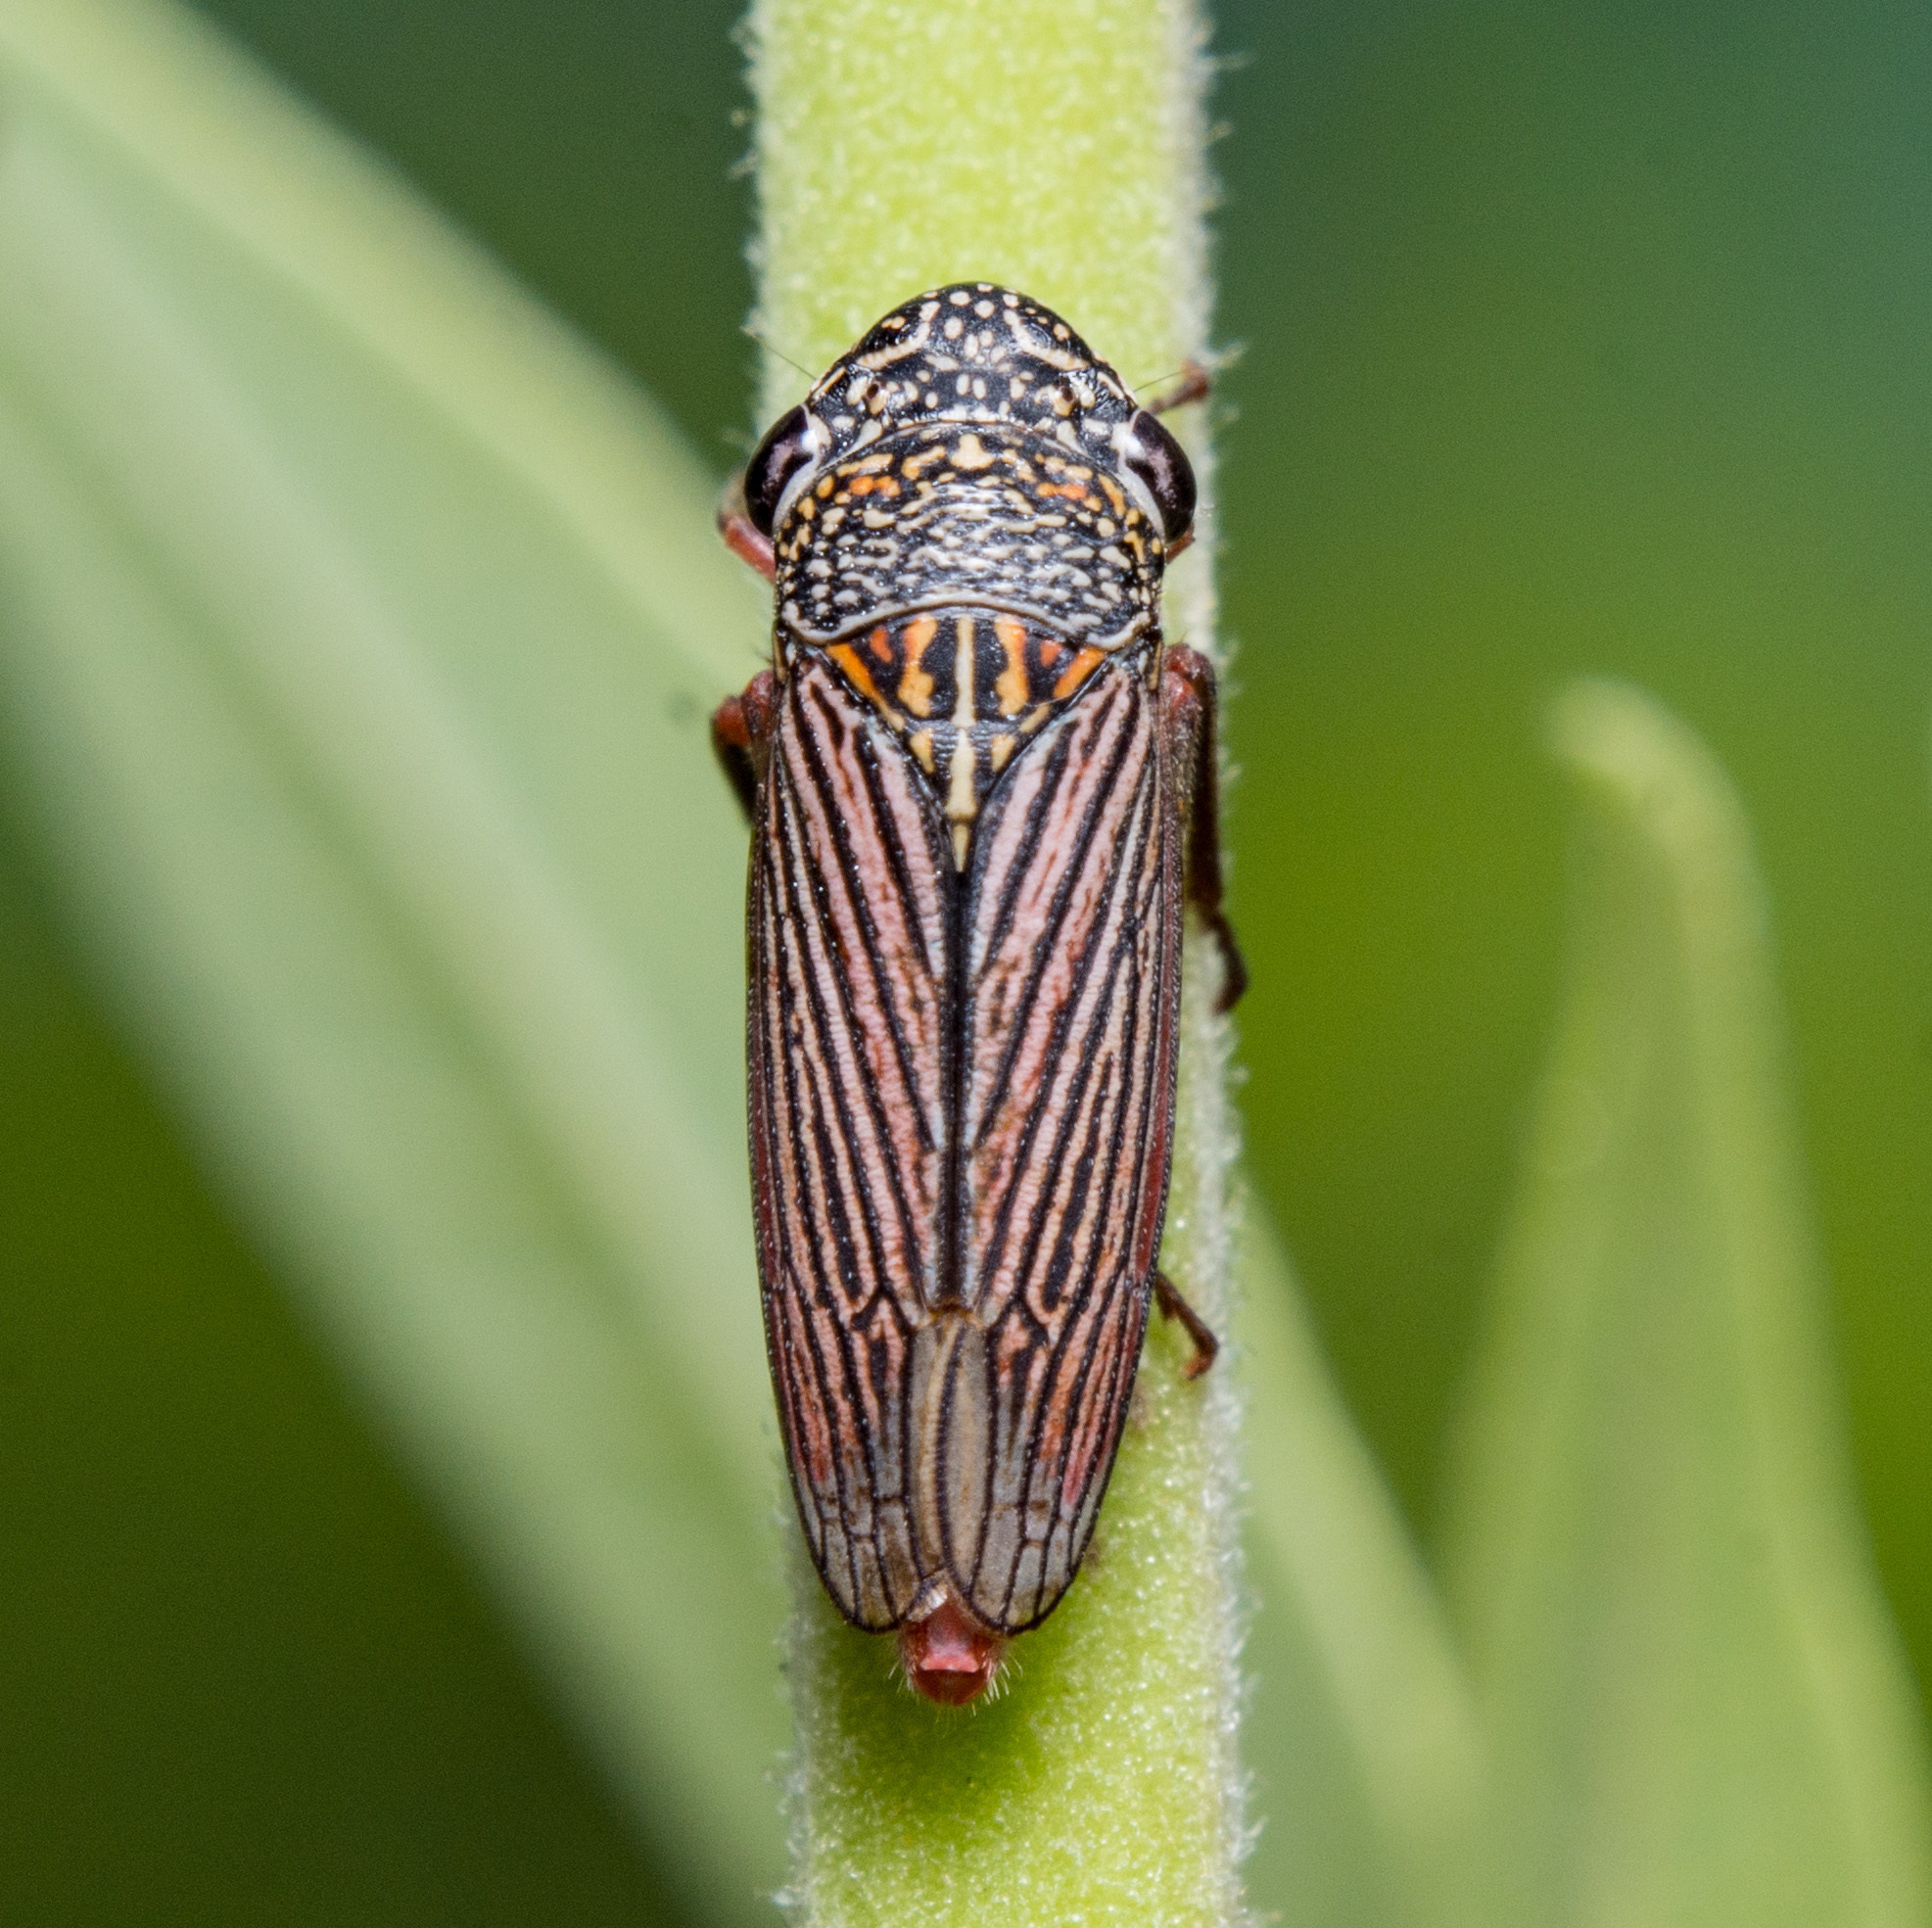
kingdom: Animalia
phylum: Arthropoda
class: Insecta
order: Hemiptera
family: Cicadellidae
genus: Cuerna
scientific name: Cuerna costalis
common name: Lateral-lined sharpshooter
